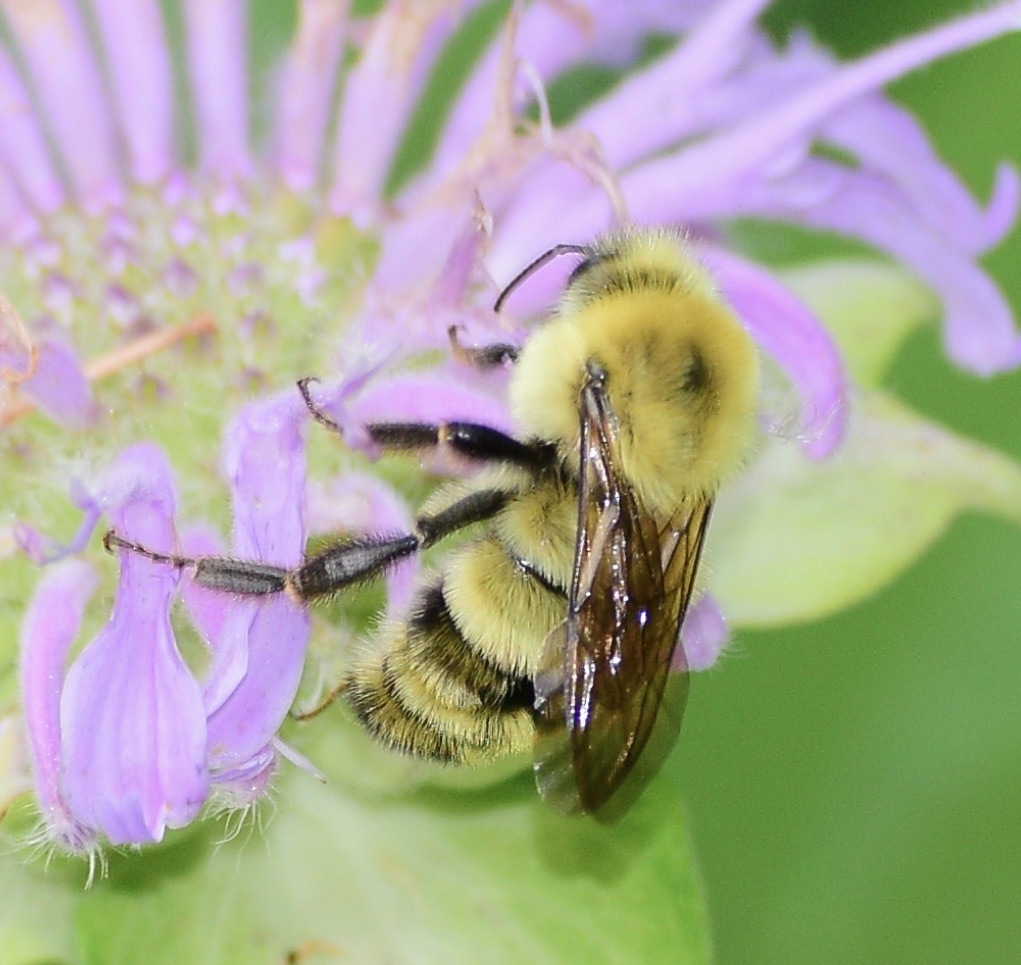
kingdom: Animalia
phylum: Arthropoda
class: Insecta
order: Hymenoptera
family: Apidae
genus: Bombus
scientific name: Bombus bimaculatus
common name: Two-spotted bumble bee
